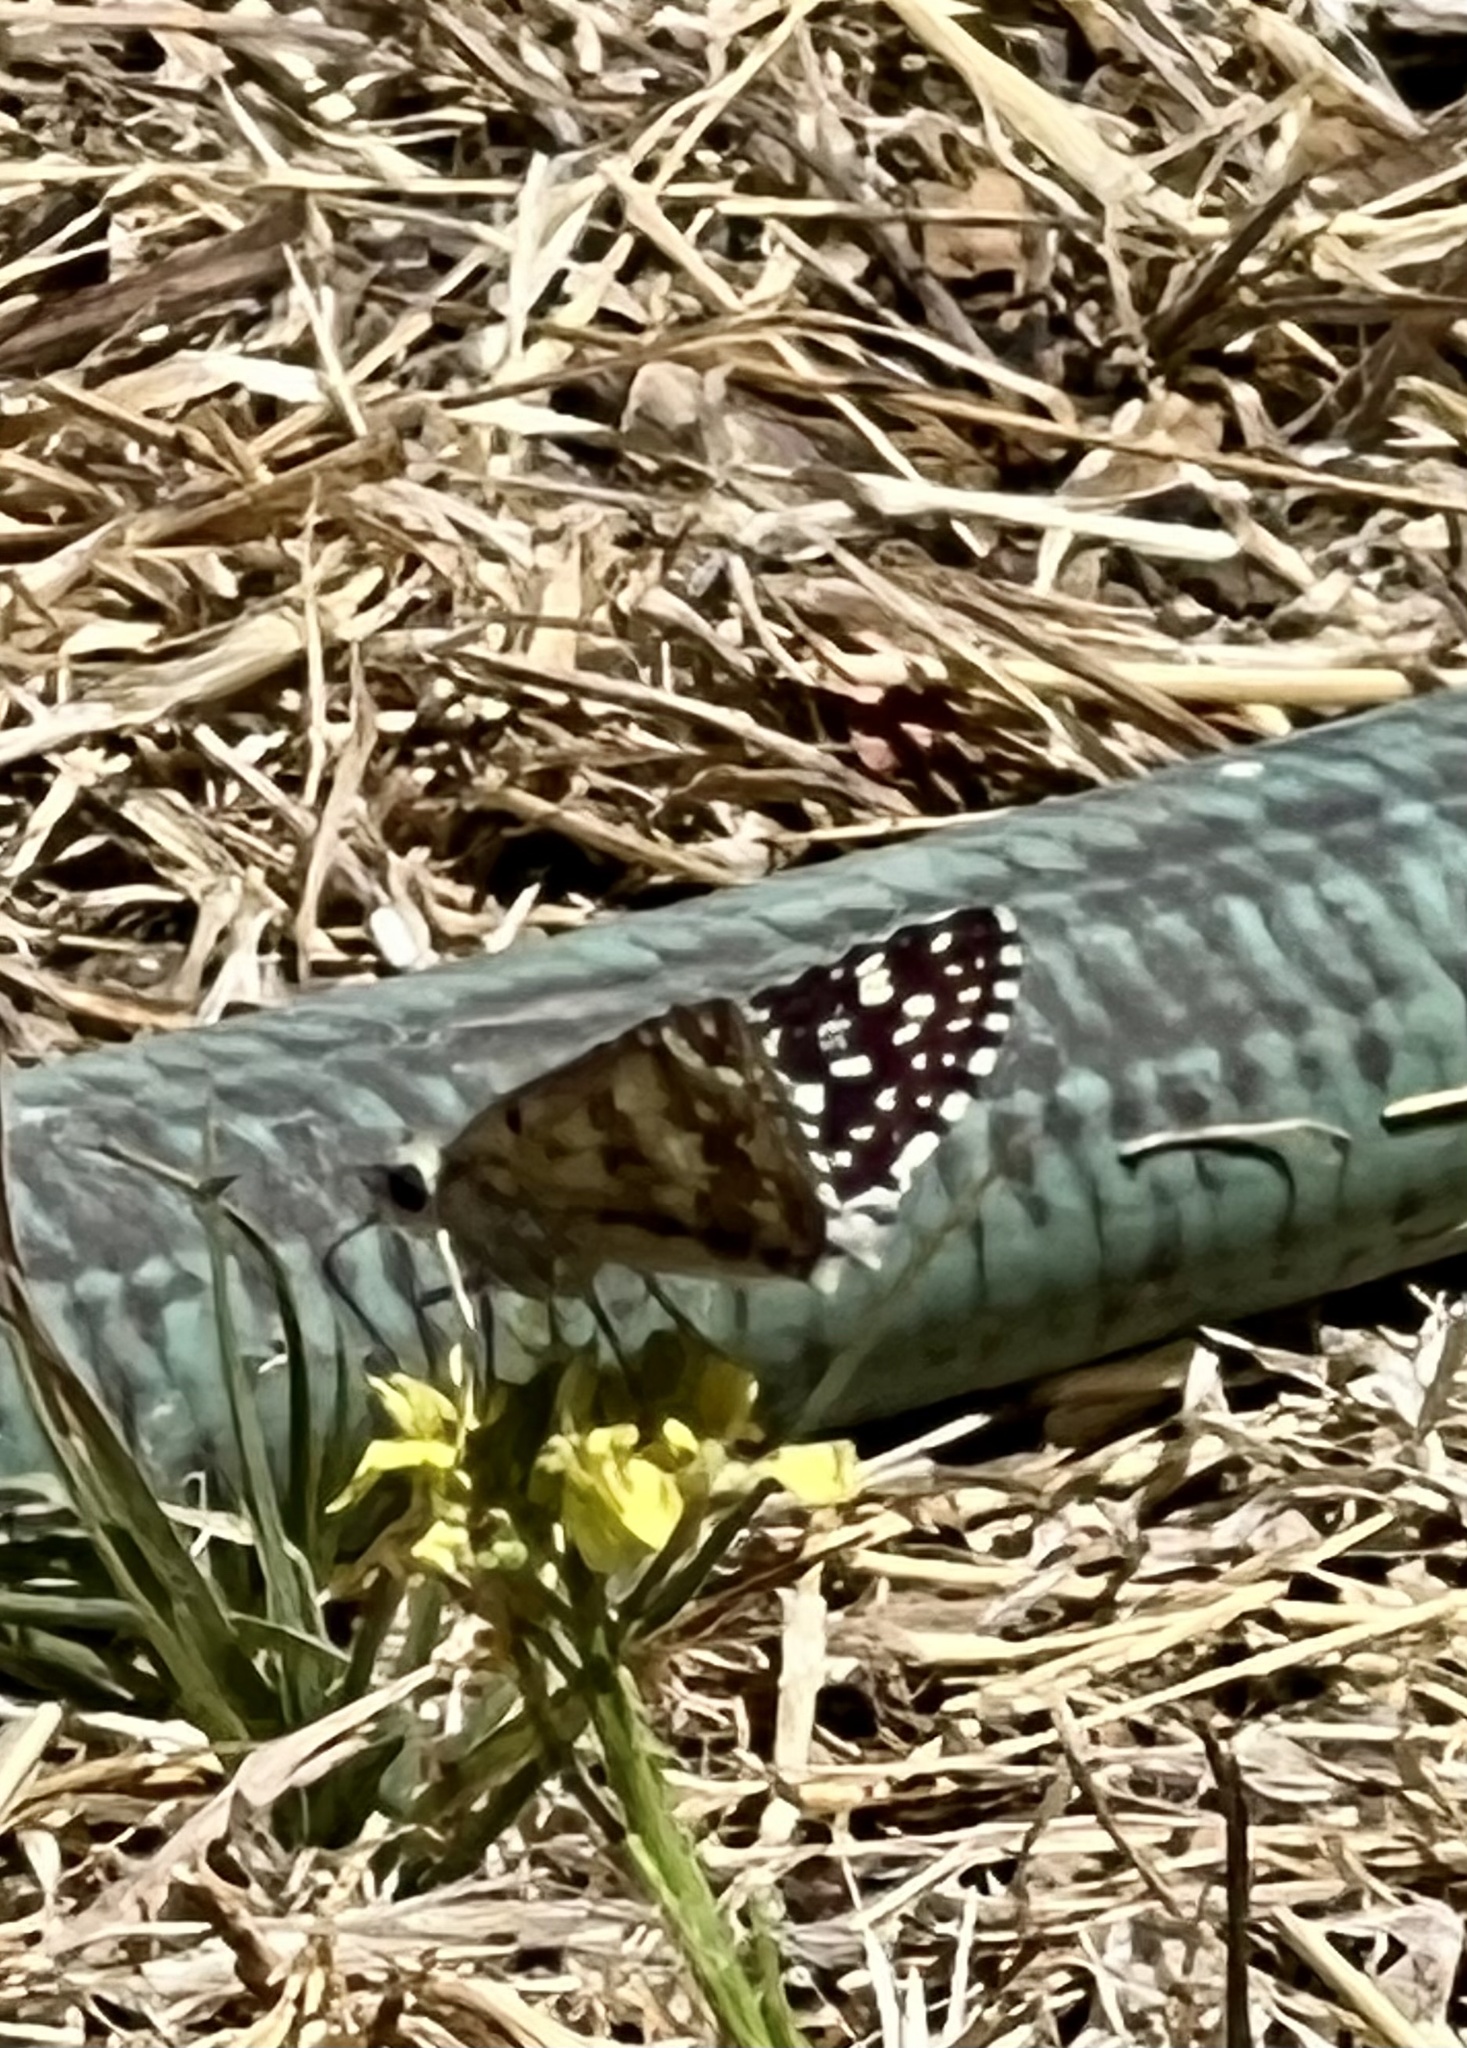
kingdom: Animalia
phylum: Arthropoda
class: Insecta
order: Lepidoptera
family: Hesperiidae
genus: Burnsius
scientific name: Burnsius communis
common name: Common checkered-skipper
